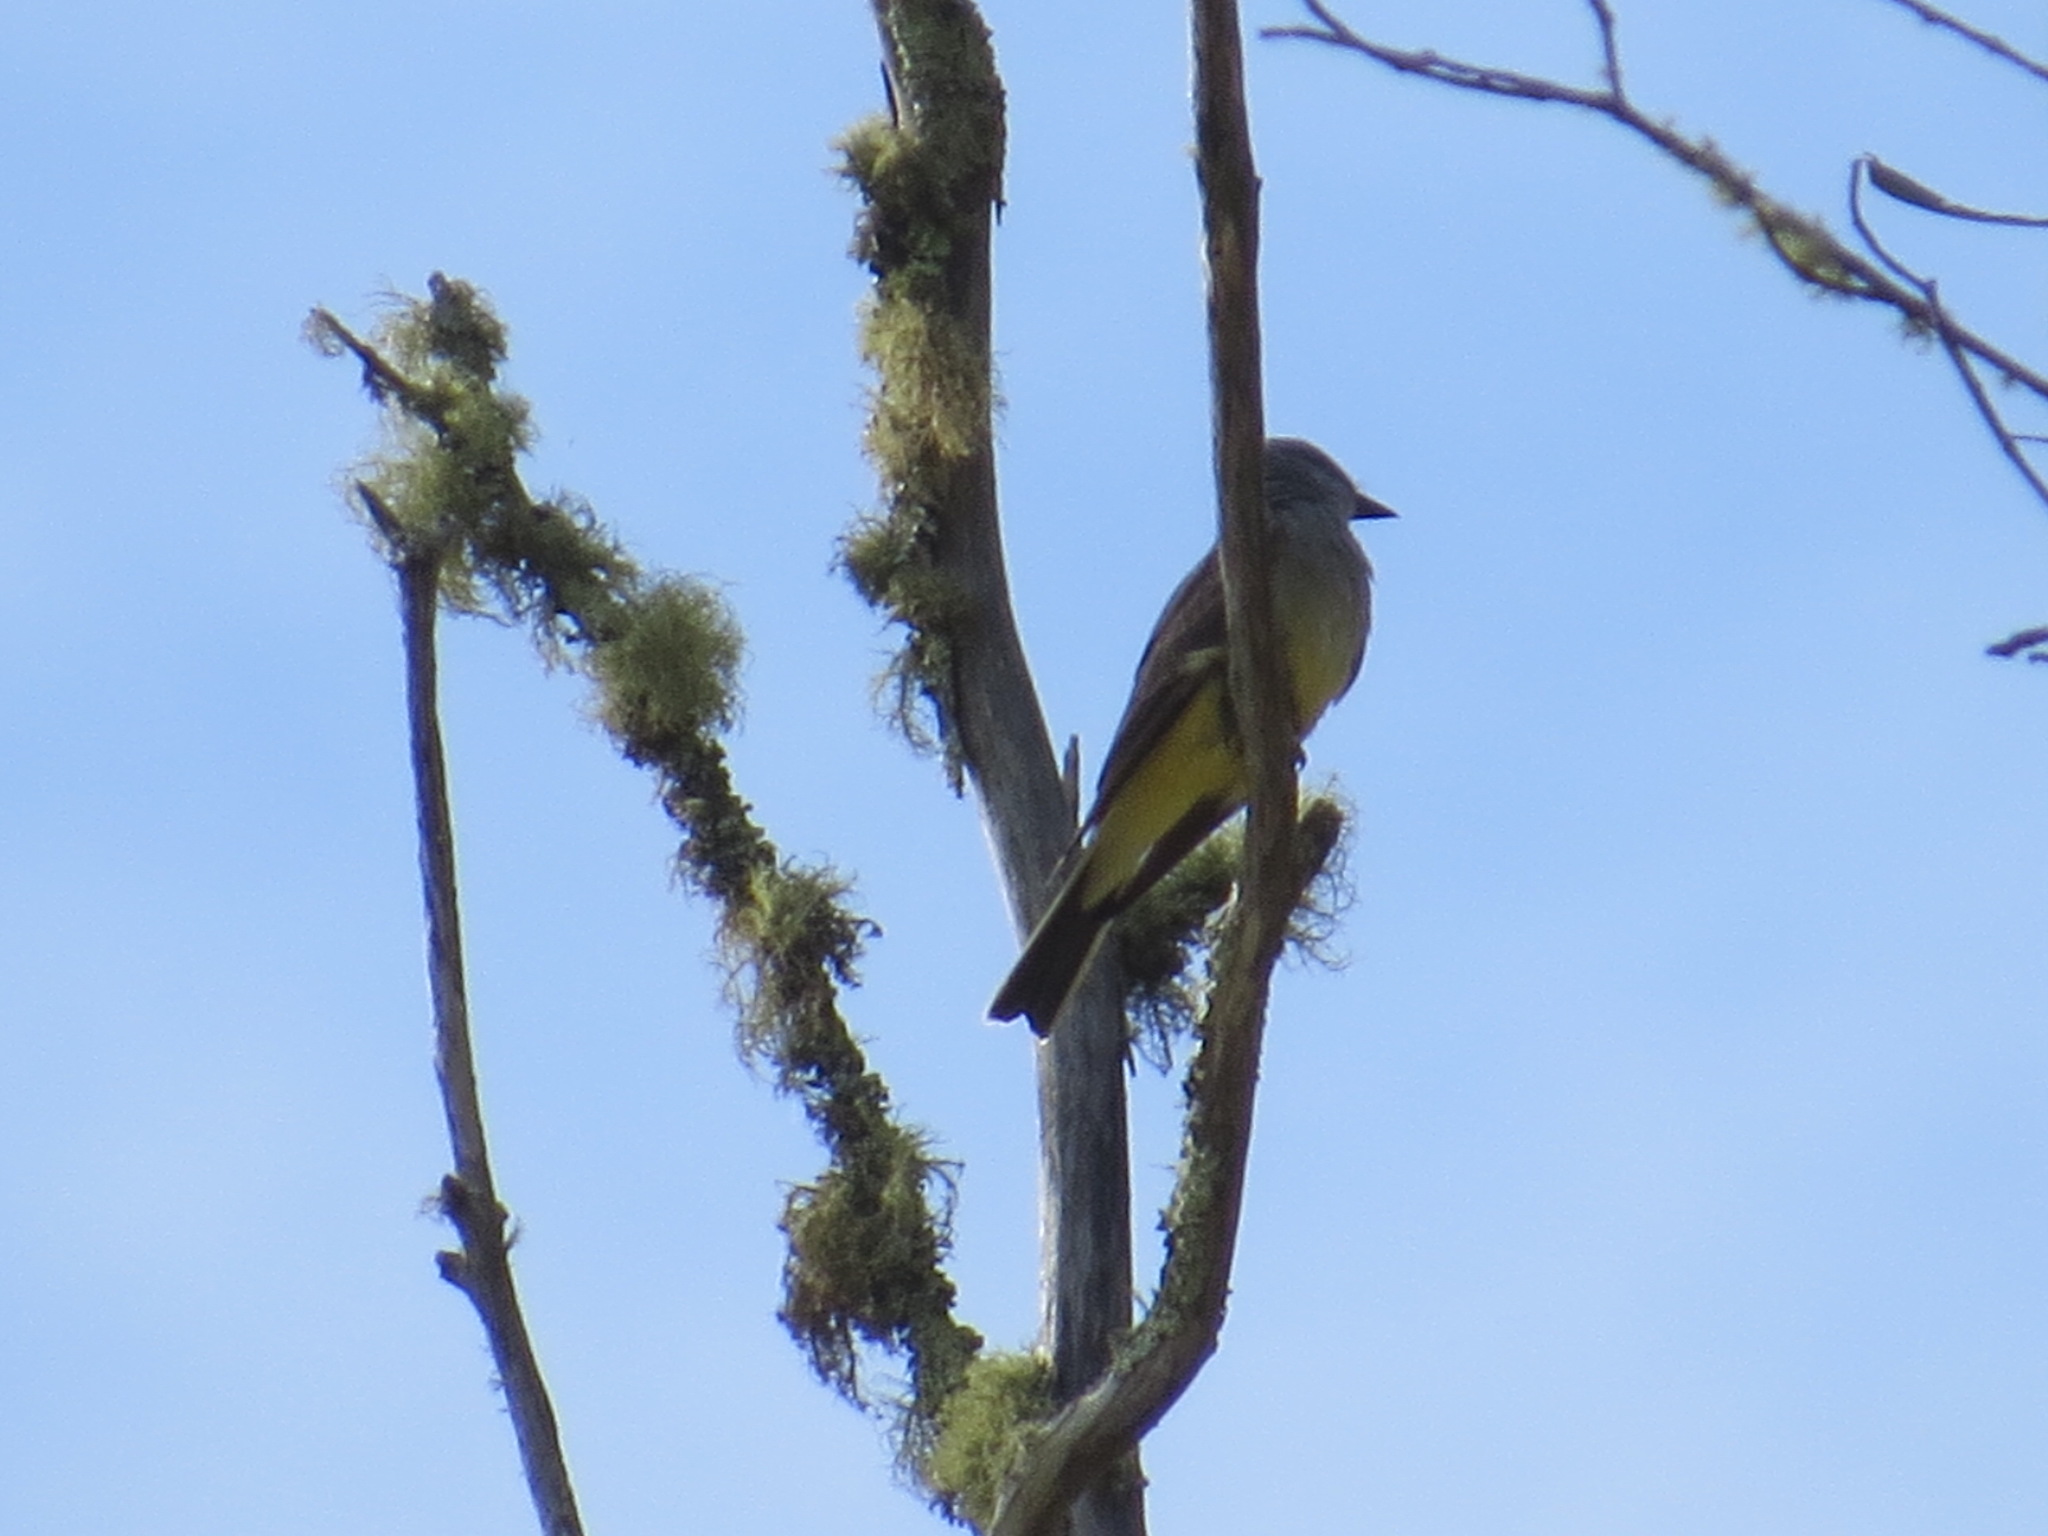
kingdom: Animalia
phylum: Chordata
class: Aves
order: Passeriformes
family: Tyrannidae
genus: Tyrannus
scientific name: Tyrannus verticalis
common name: Western kingbird
